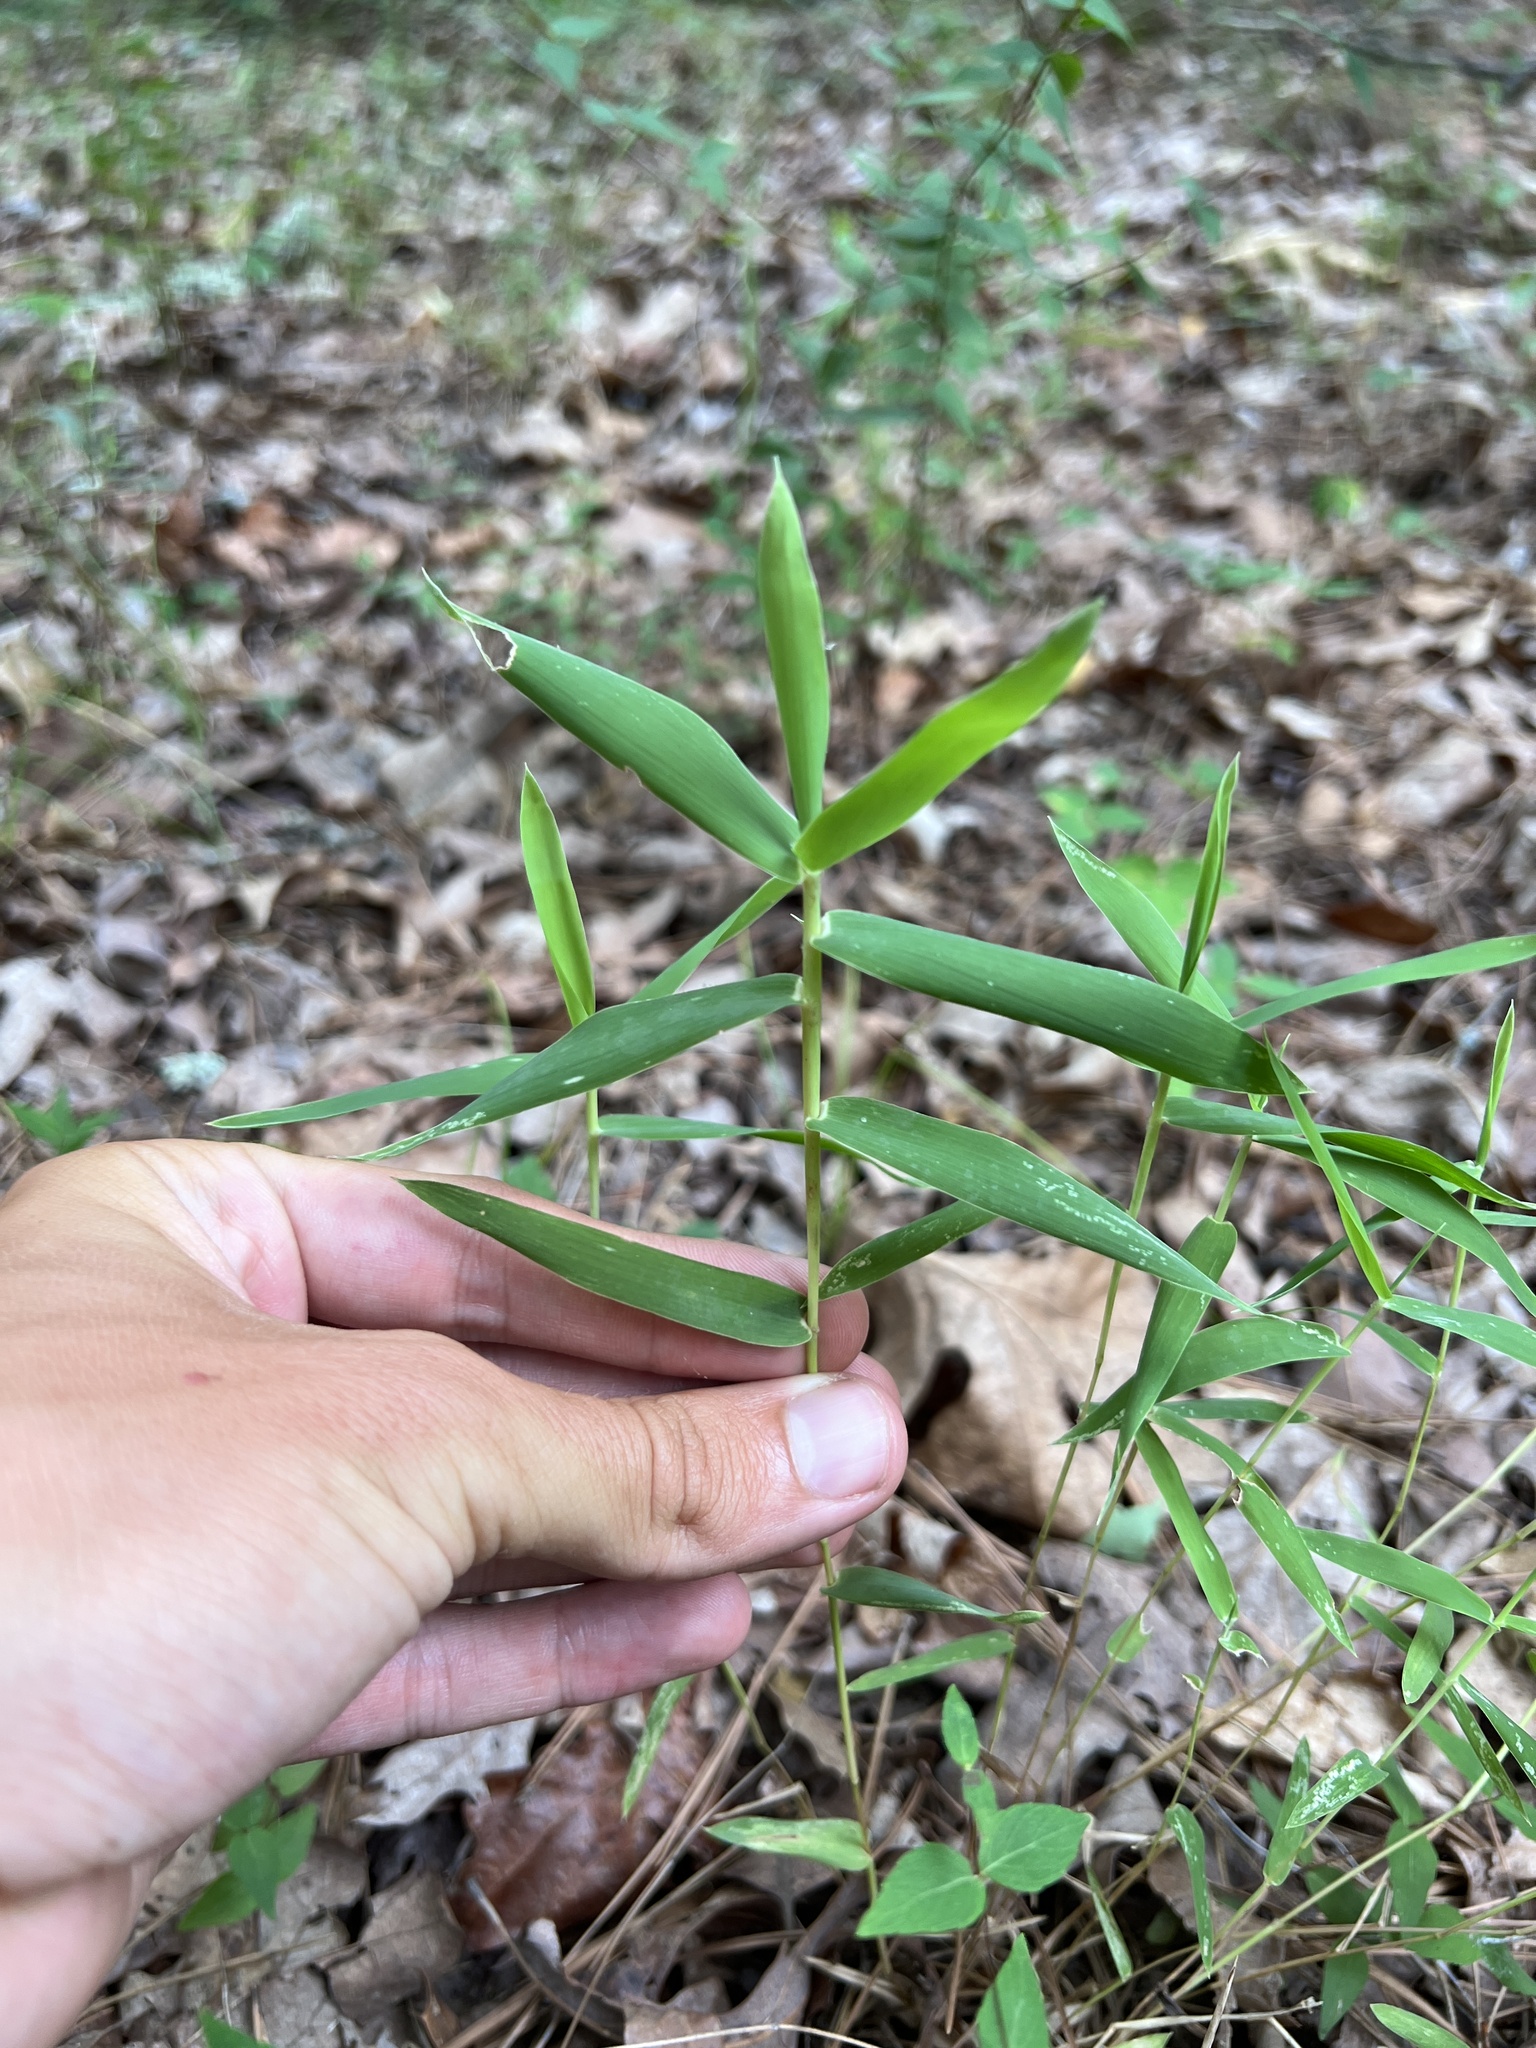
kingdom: Plantae
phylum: Tracheophyta
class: Liliopsida
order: Poales
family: Poaceae
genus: Gymnopogon
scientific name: Gymnopogon ambiguus
